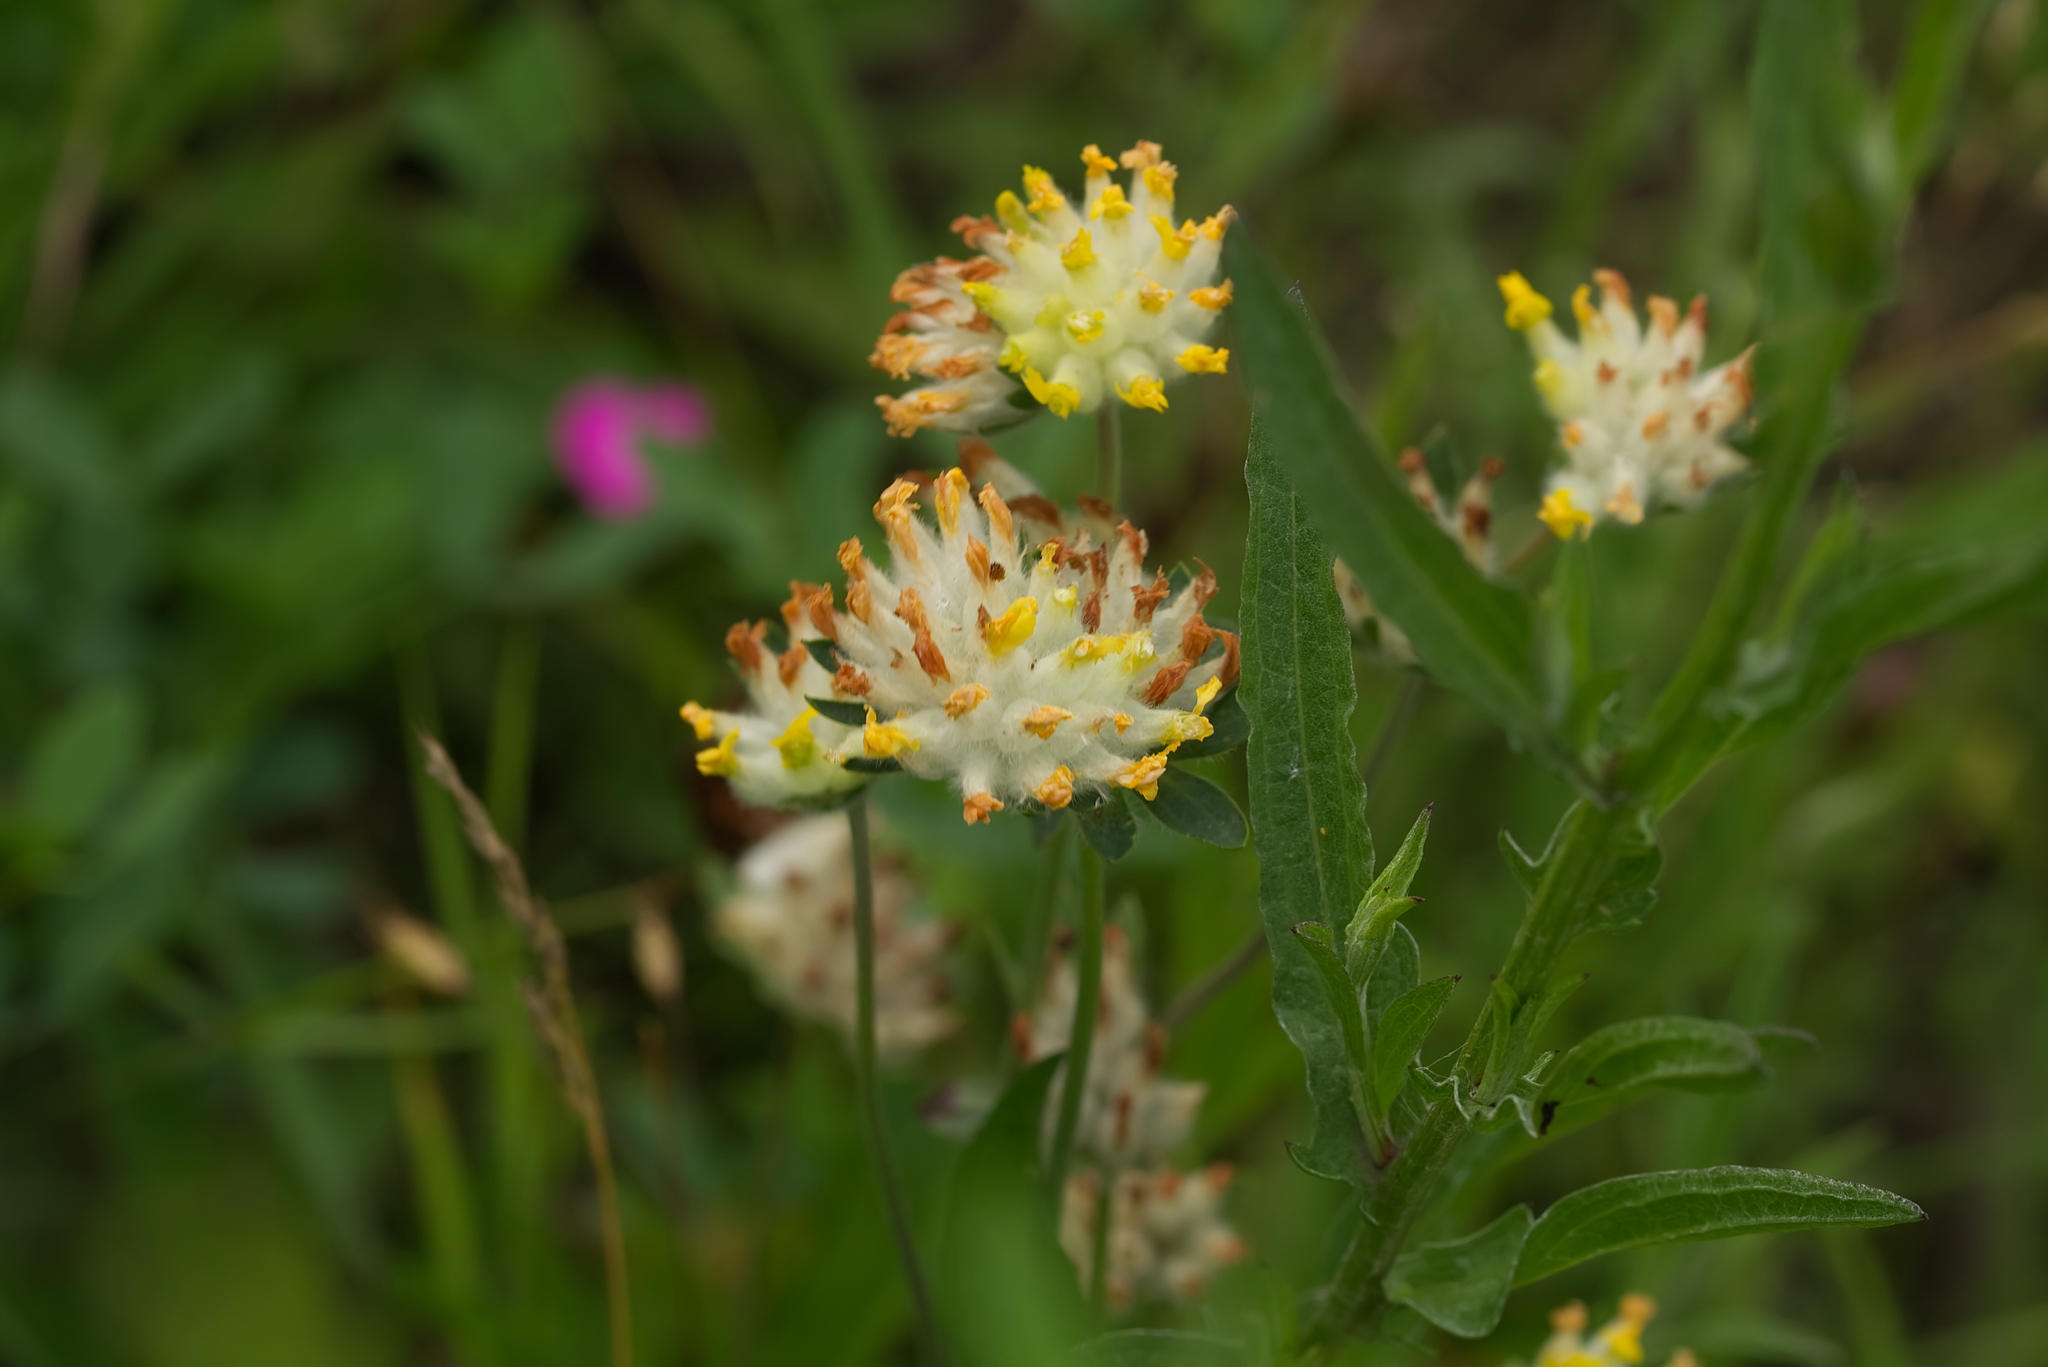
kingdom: Plantae
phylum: Tracheophyta
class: Magnoliopsida
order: Fabales
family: Fabaceae
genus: Anthyllis
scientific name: Anthyllis vulneraria
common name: Kidney vetch
